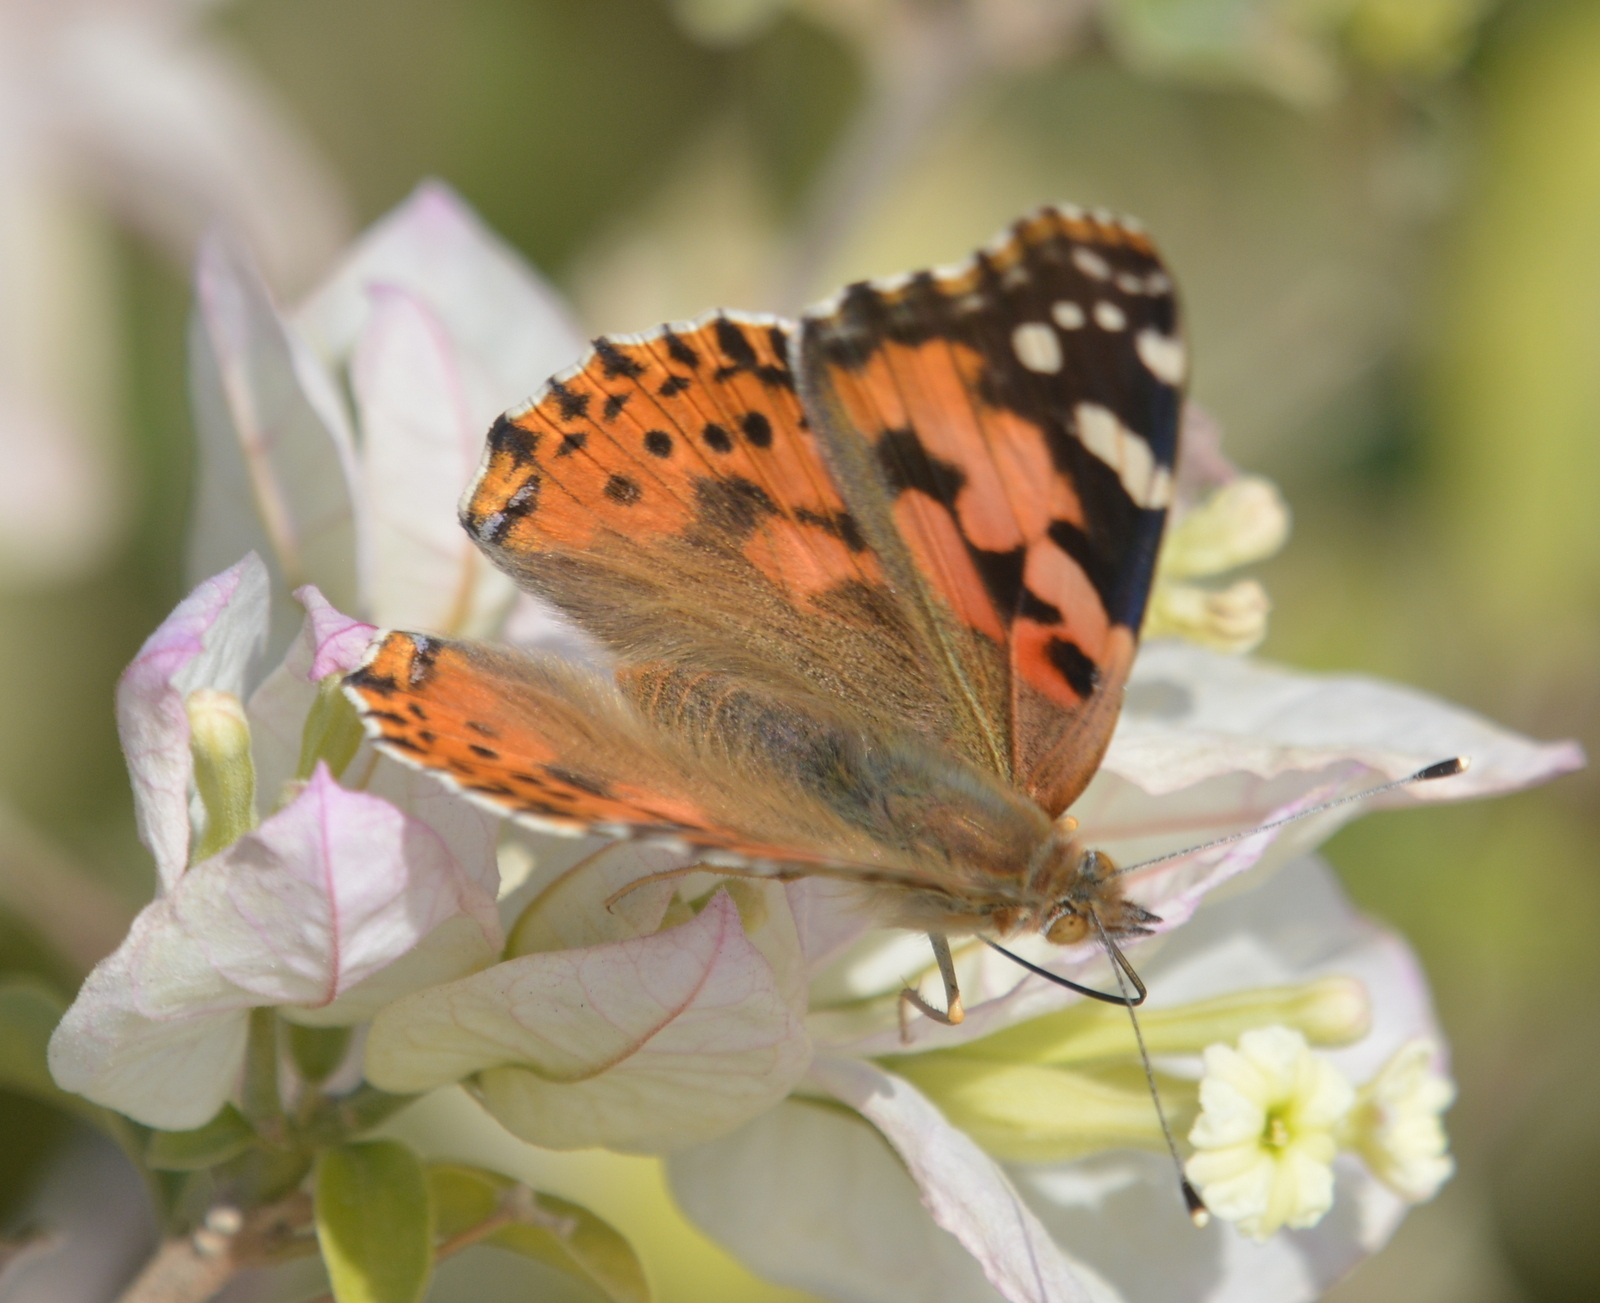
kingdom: Animalia
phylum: Arthropoda
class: Insecta
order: Lepidoptera
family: Nymphalidae
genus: Vanessa
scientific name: Vanessa cardui
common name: Painted lady
